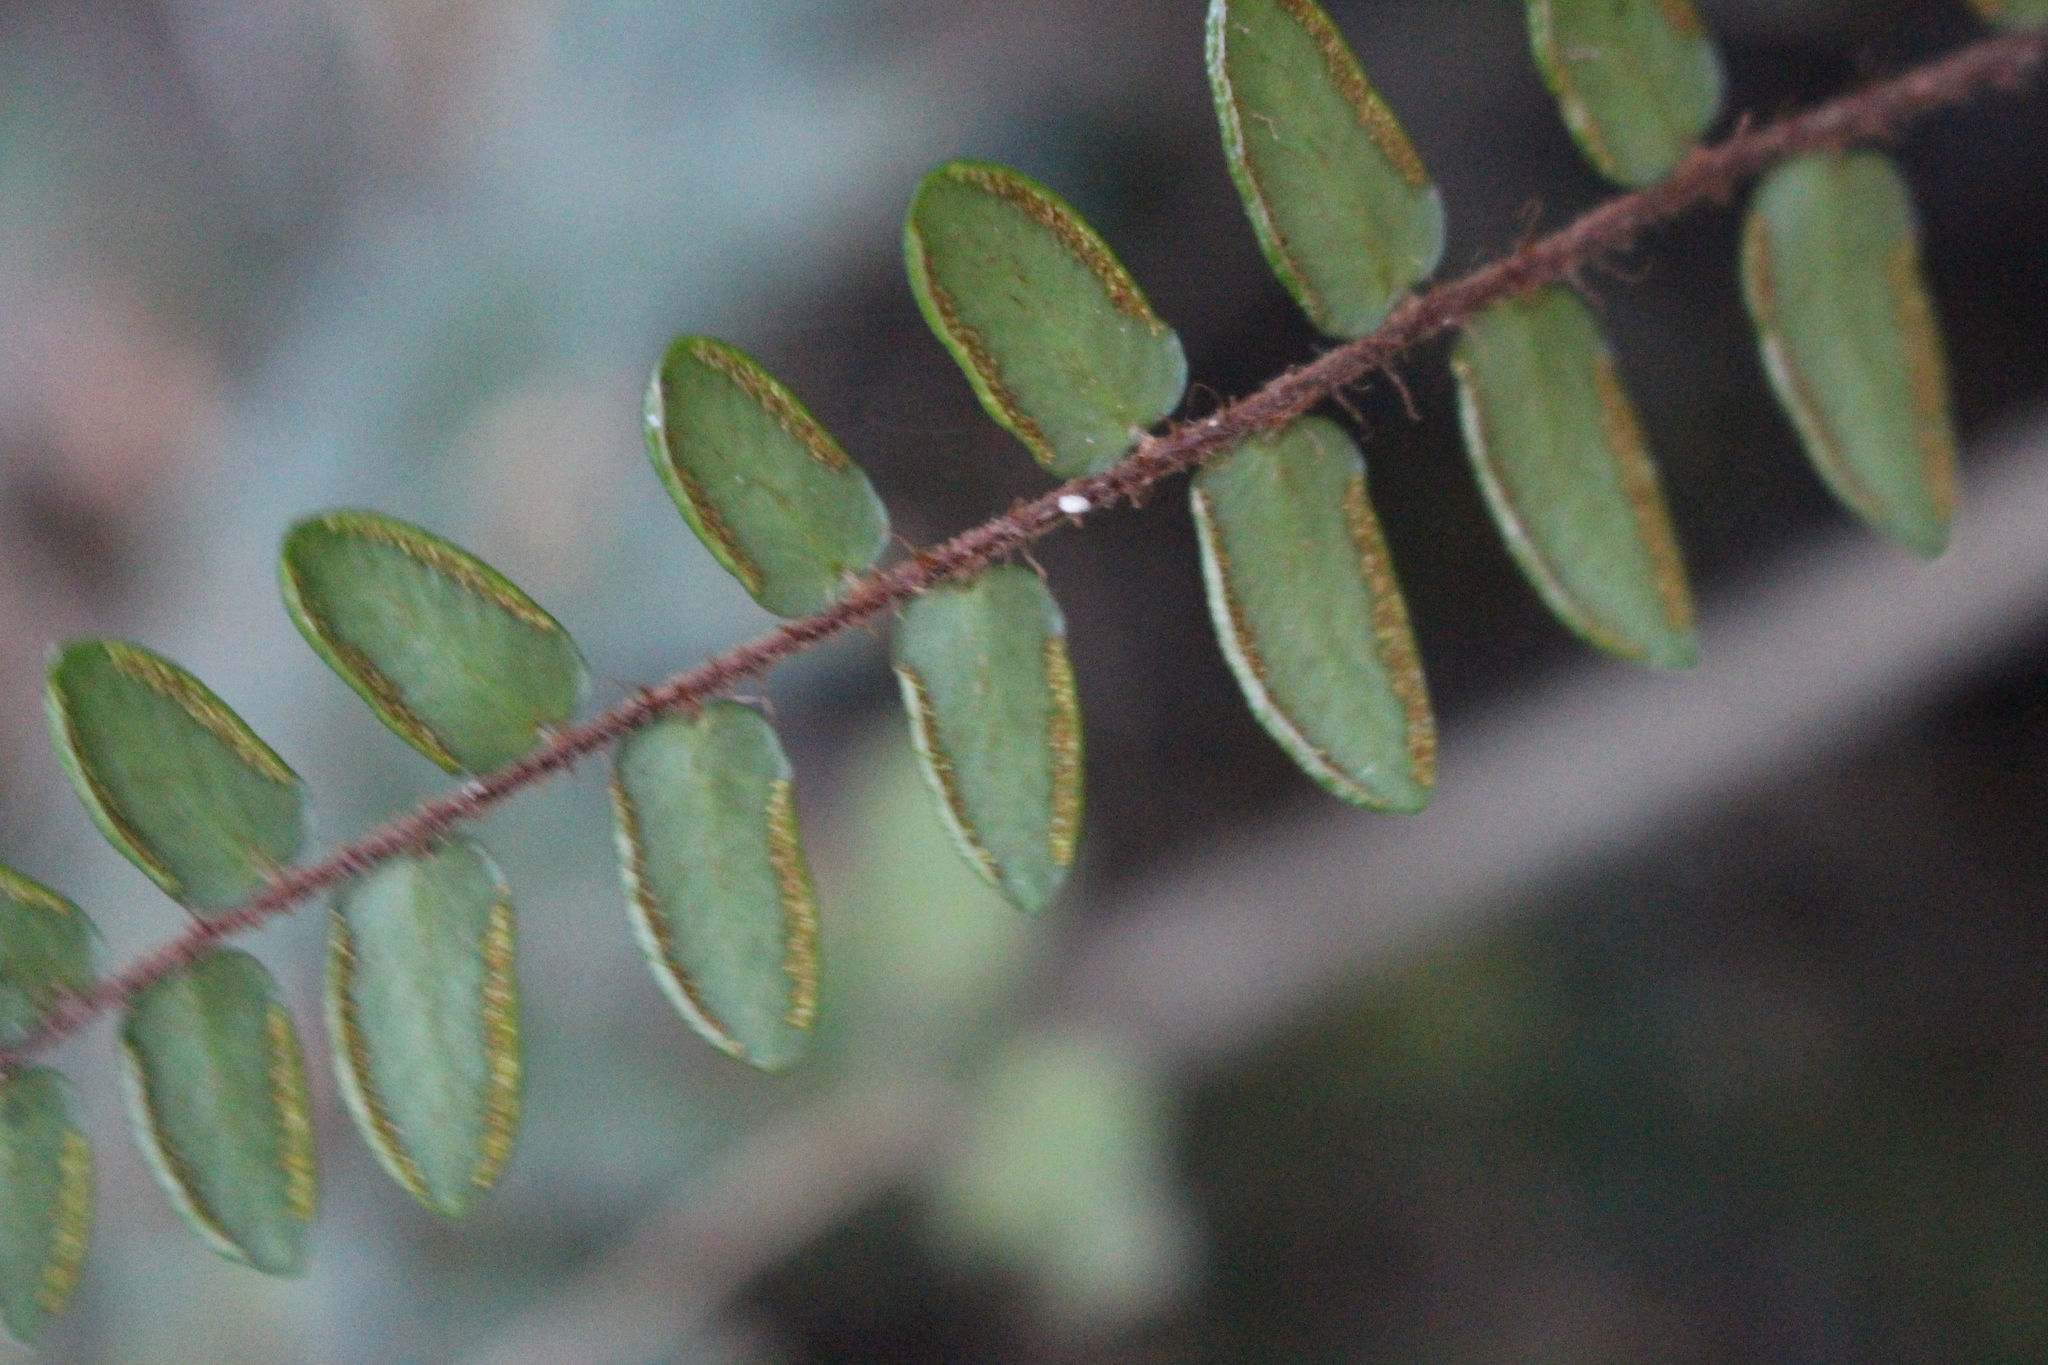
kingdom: Plantae
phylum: Tracheophyta
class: Polypodiopsida
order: Polypodiales
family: Pteridaceae
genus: Pellaea
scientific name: Pellaea rotundifolia
